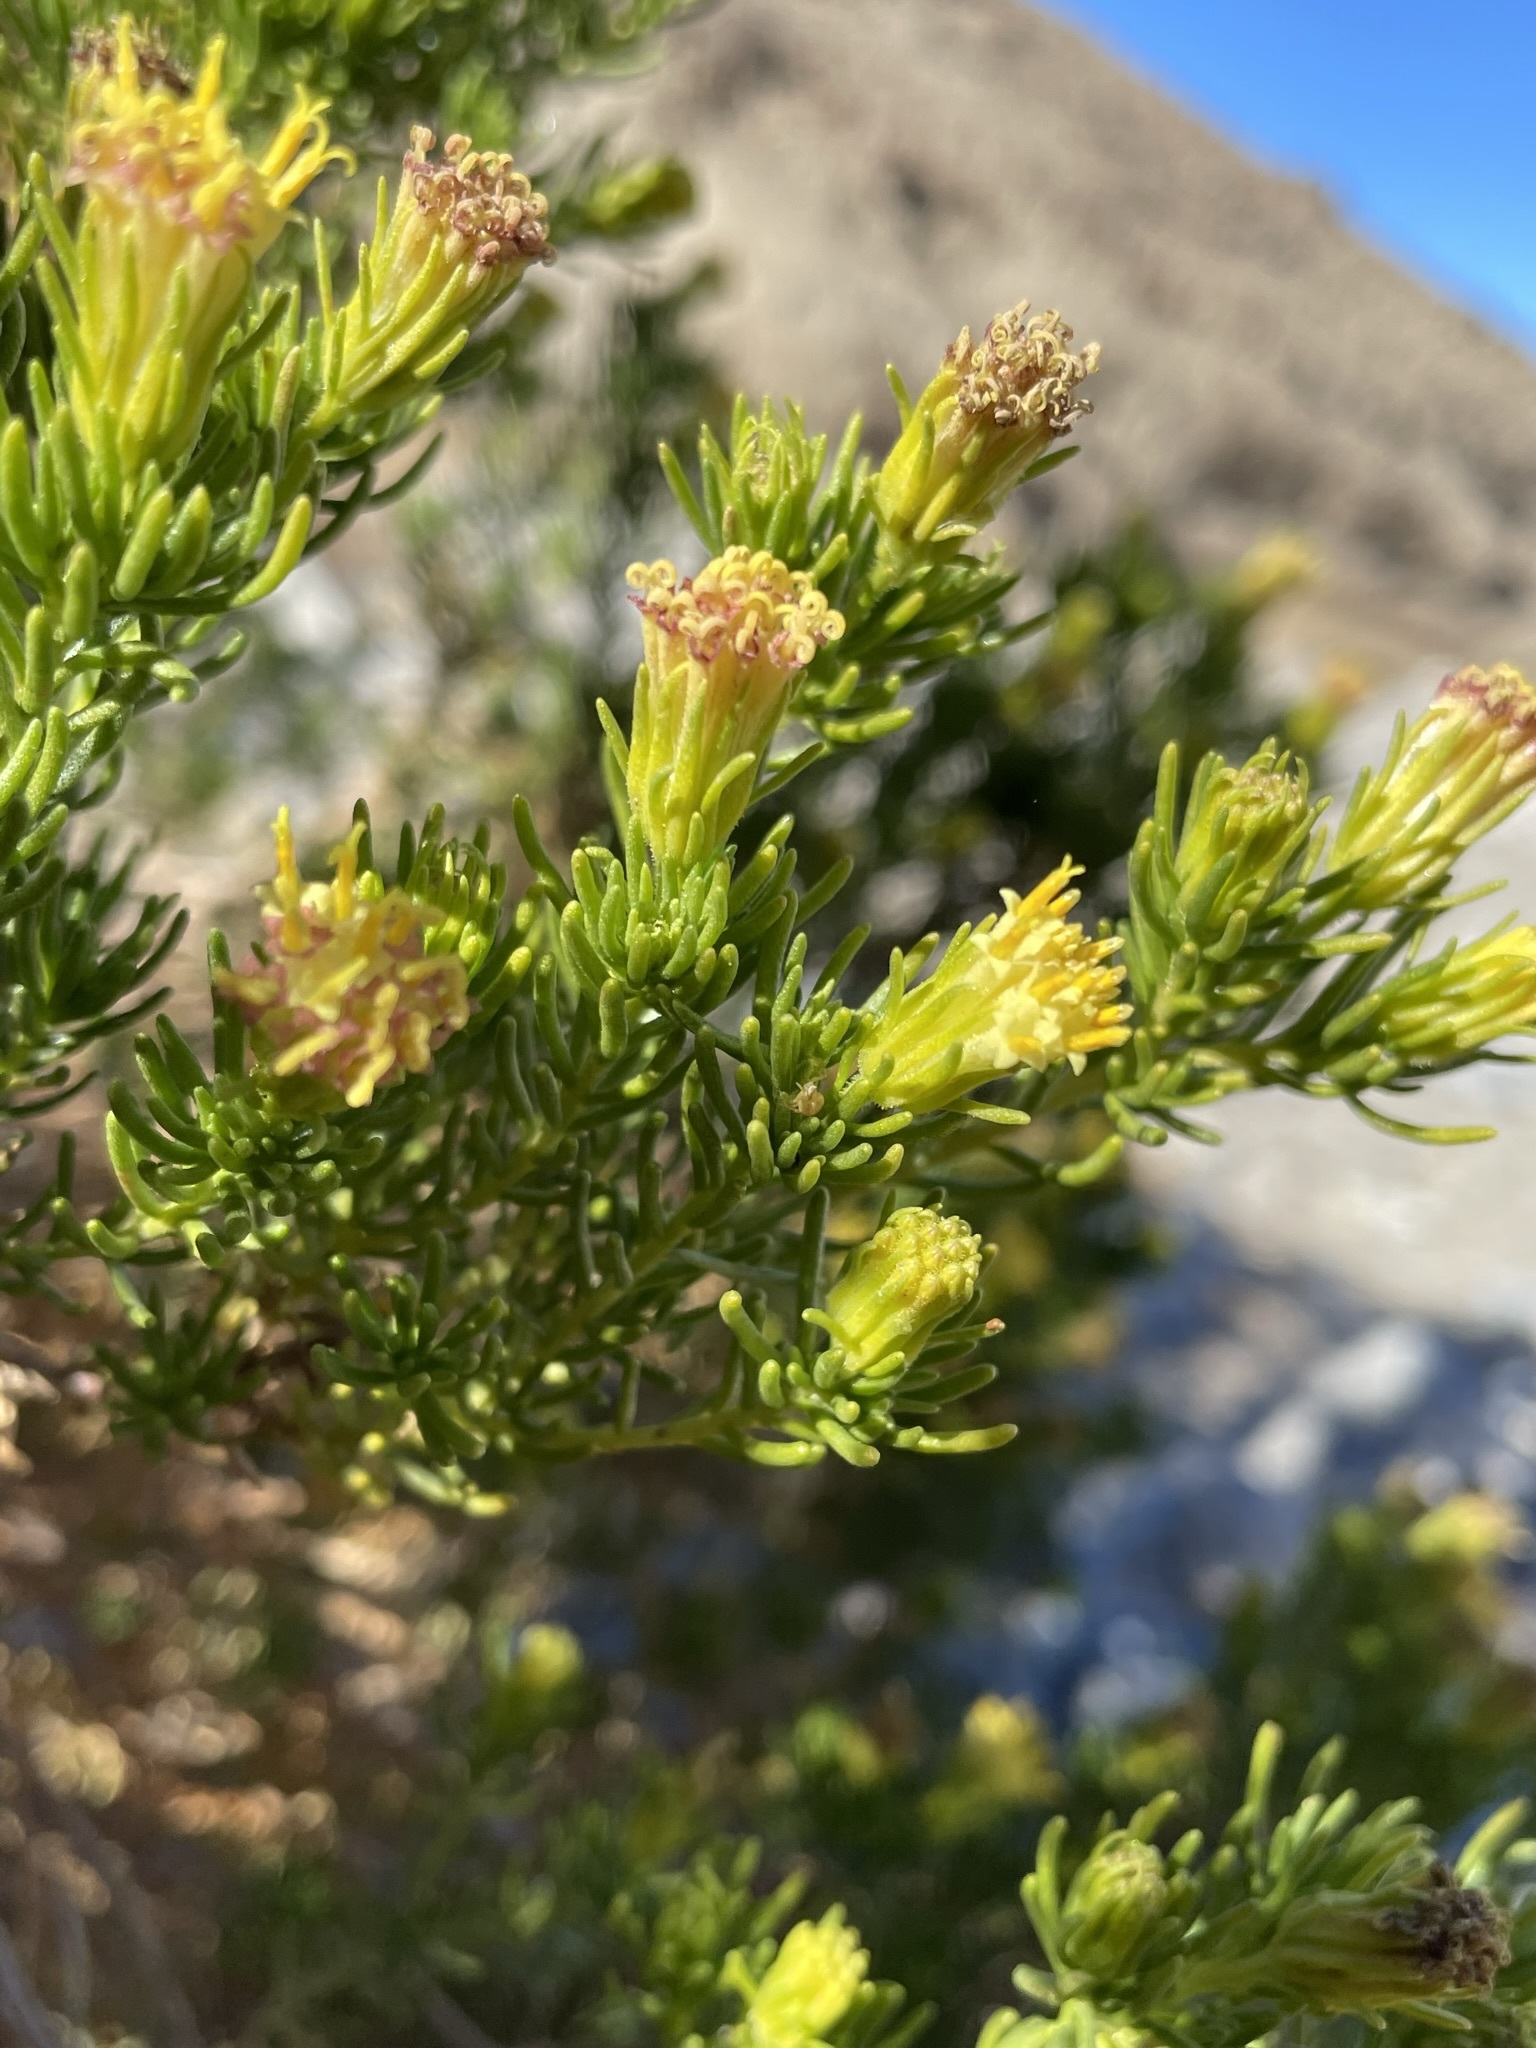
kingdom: Plantae
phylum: Tracheophyta
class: Magnoliopsida
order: Asterales
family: Asteraceae
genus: Peucephyllum
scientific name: Peucephyllum schottii
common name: Pygmy-cedar
